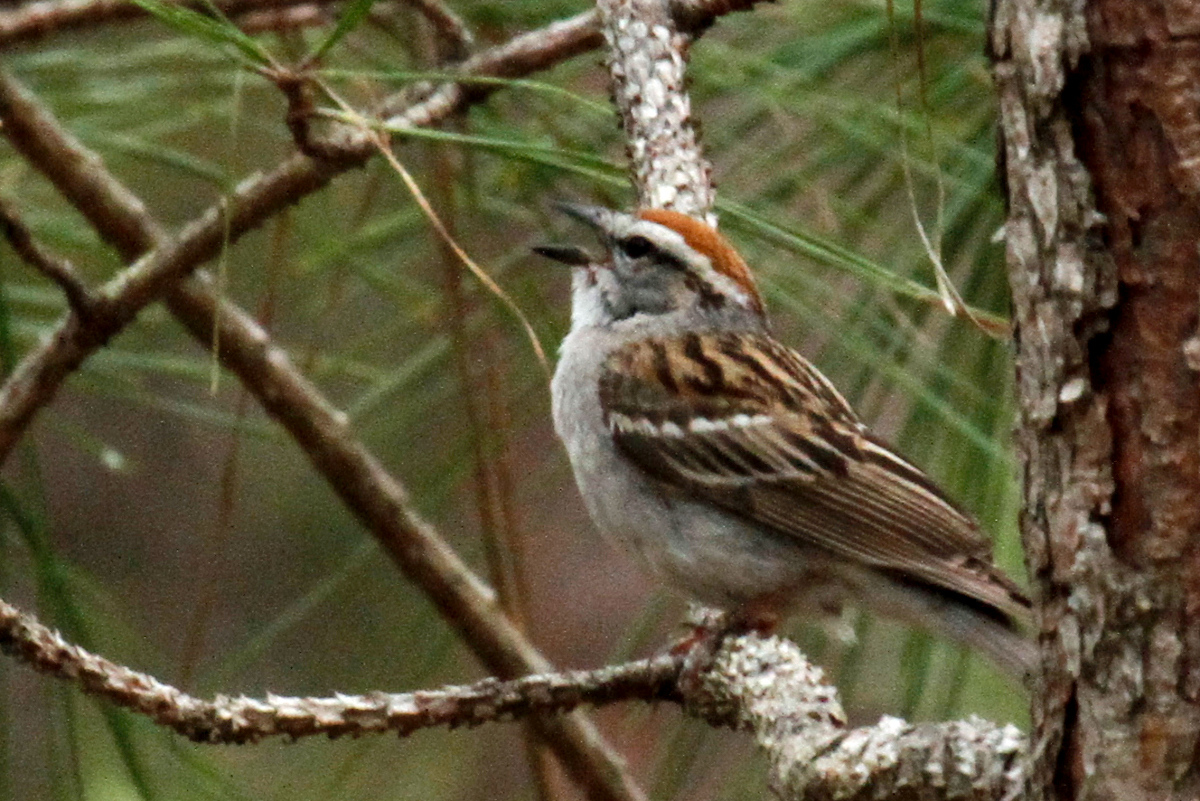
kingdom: Animalia
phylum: Chordata
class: Aves
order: Passeriformes
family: Passerellidae
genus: Spizella
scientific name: Spizella passerina
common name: Chipping sparrow
